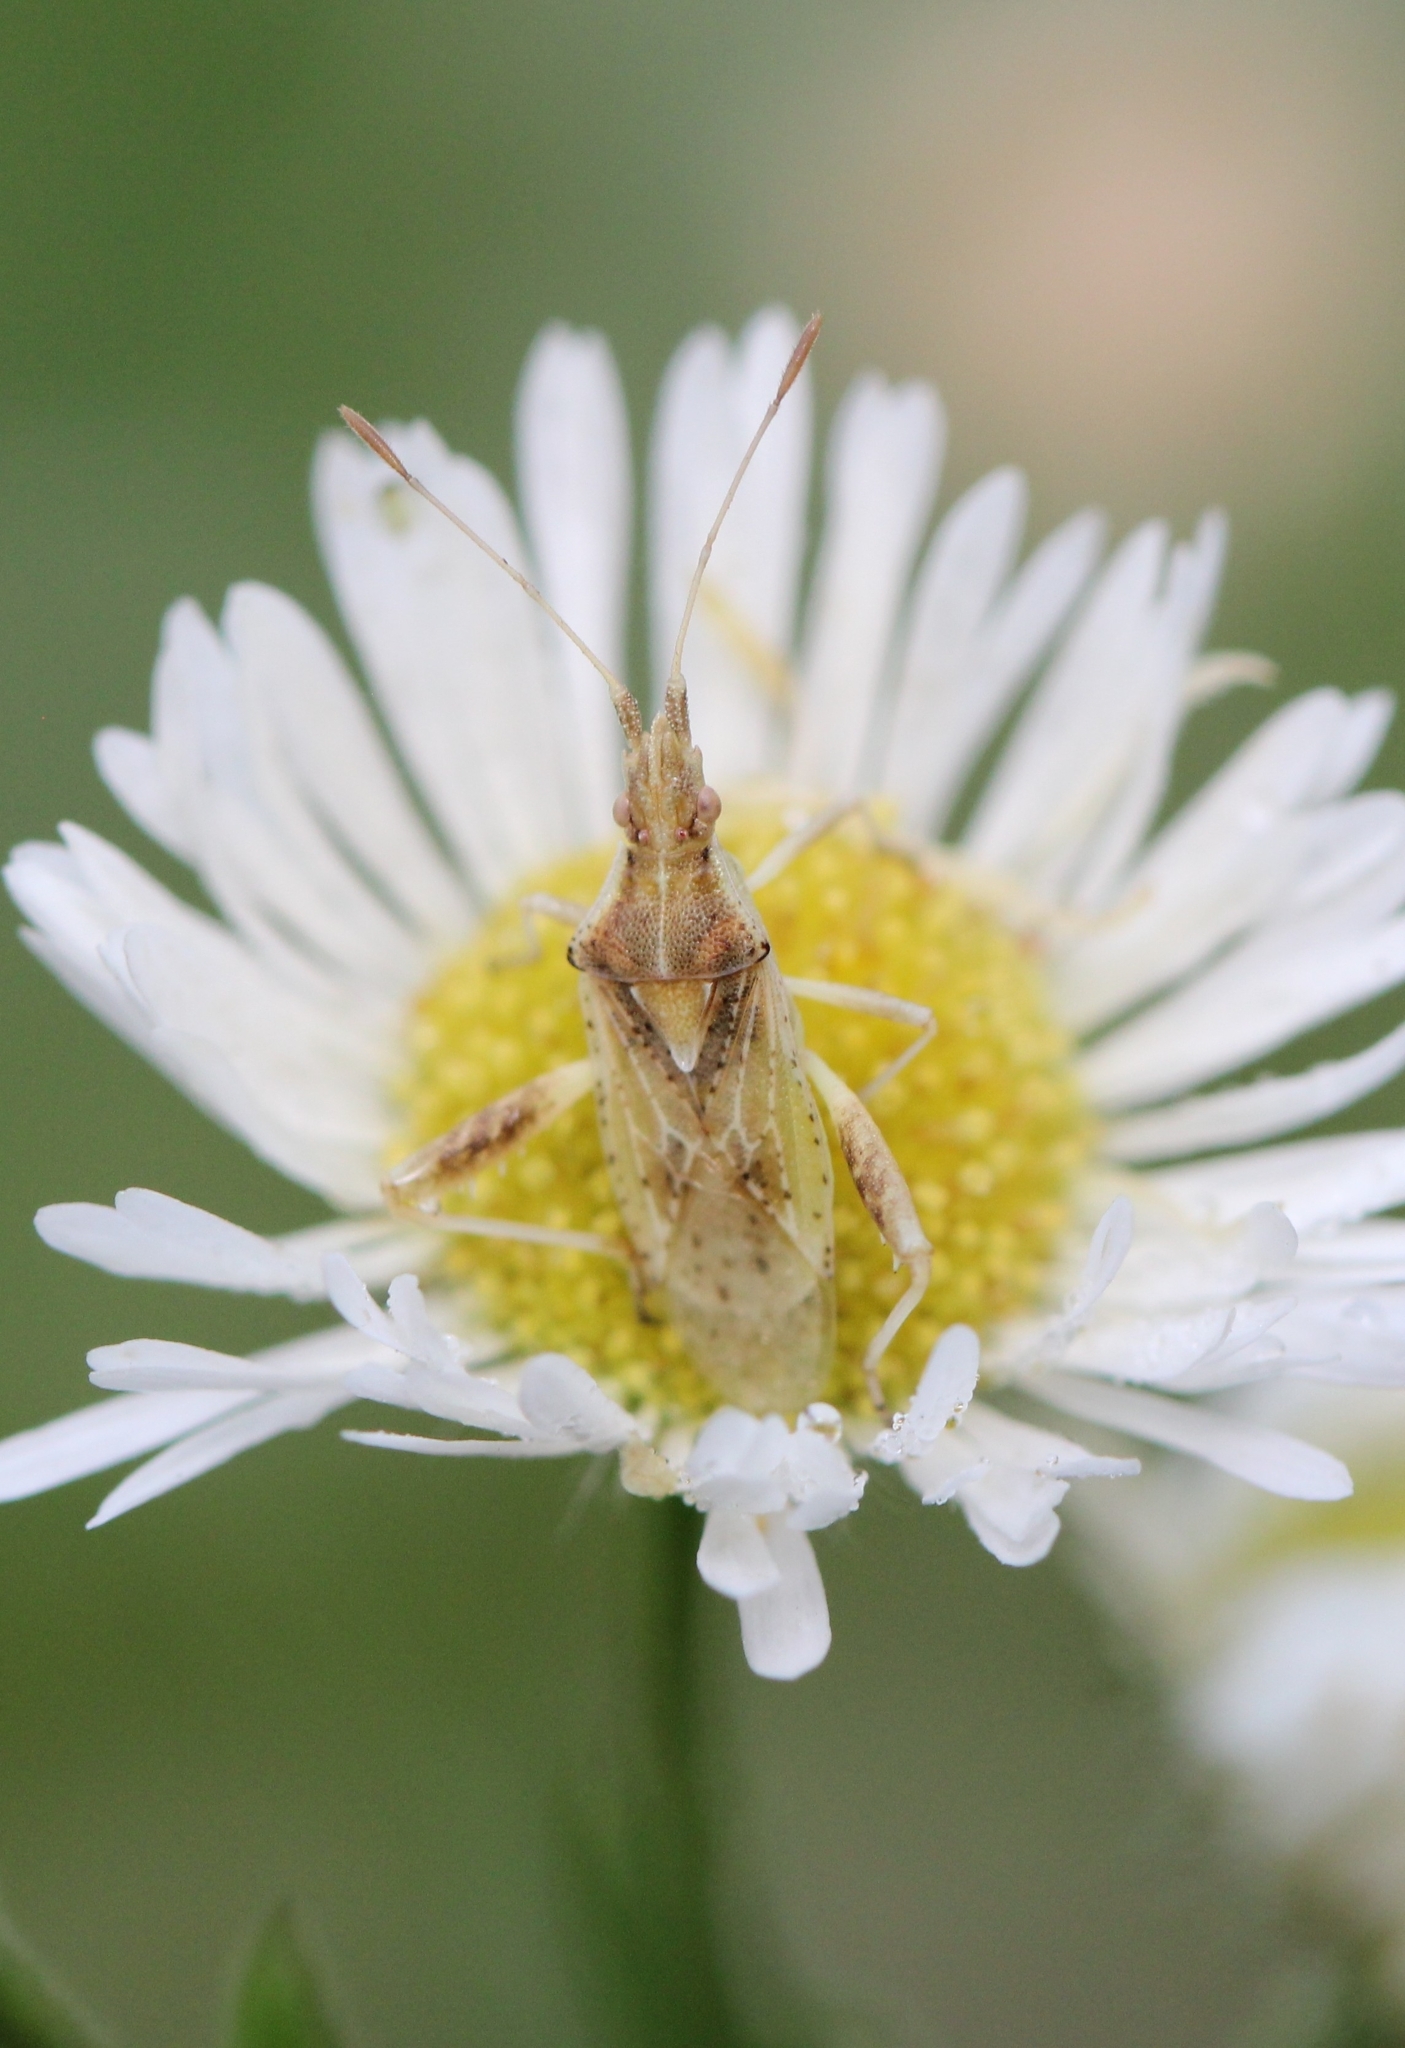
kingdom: Animalia
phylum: Arthropoda
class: Insecta
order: Hemiptera
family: Rhopalidae
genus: Harmostes
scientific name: Harmostes reflexulus
